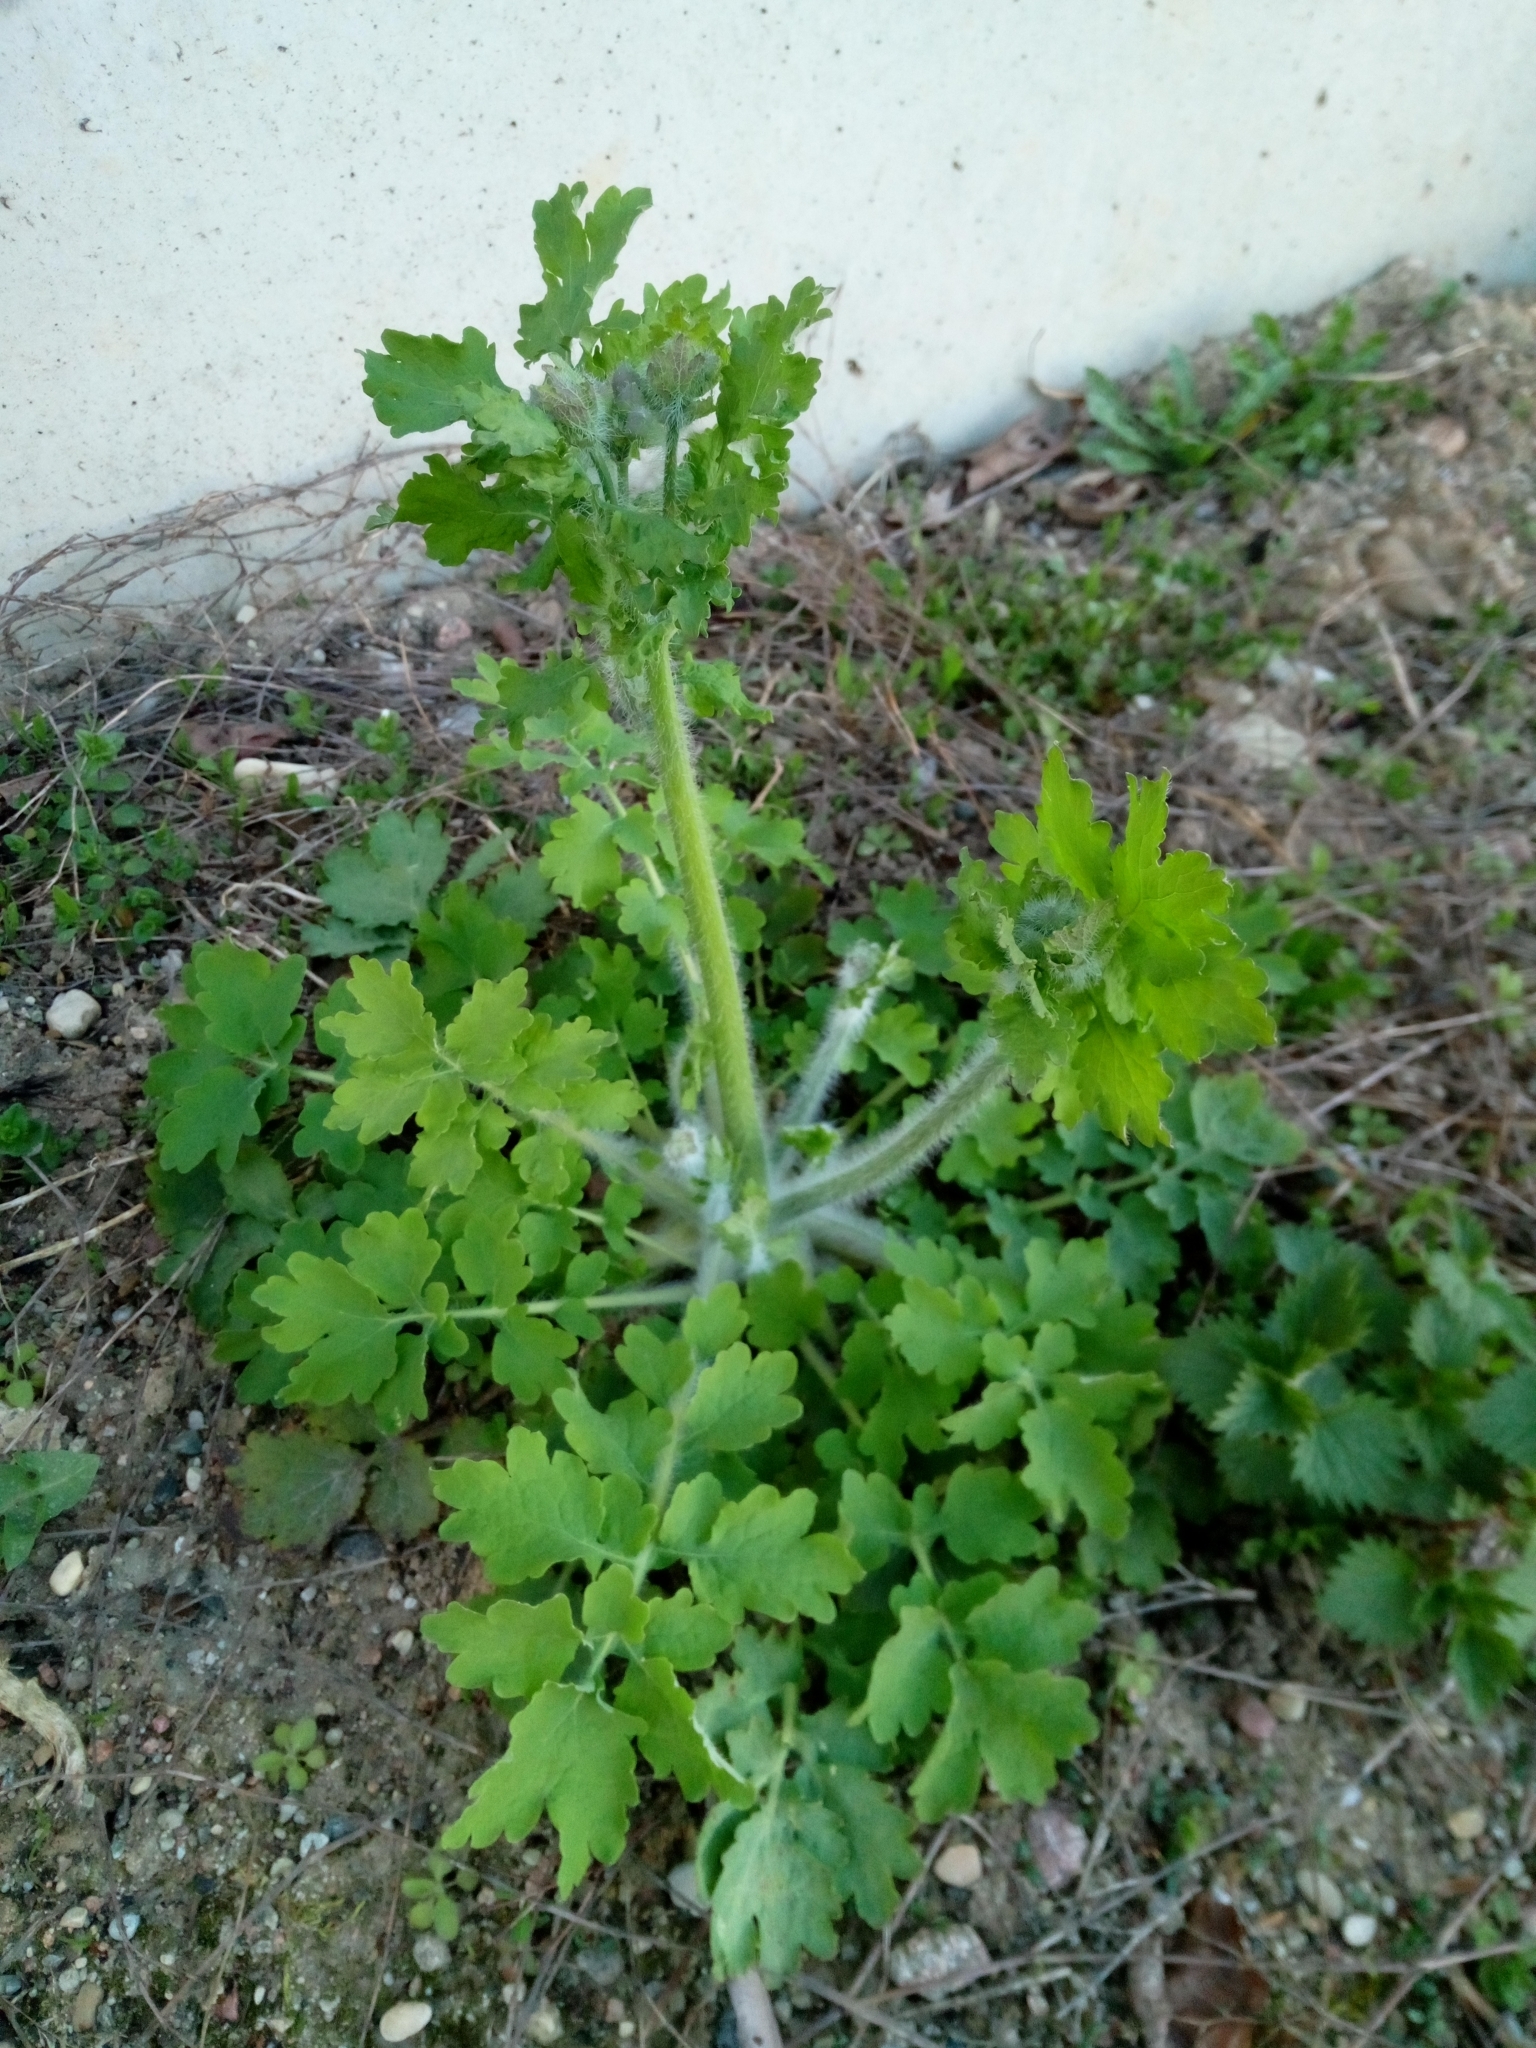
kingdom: Plantae
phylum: Tracheophyta
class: Magnoliopsida
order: Ranunculales
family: Papaveraceae
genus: Chelidonium
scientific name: Chelidonium majus
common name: Greater celandine
